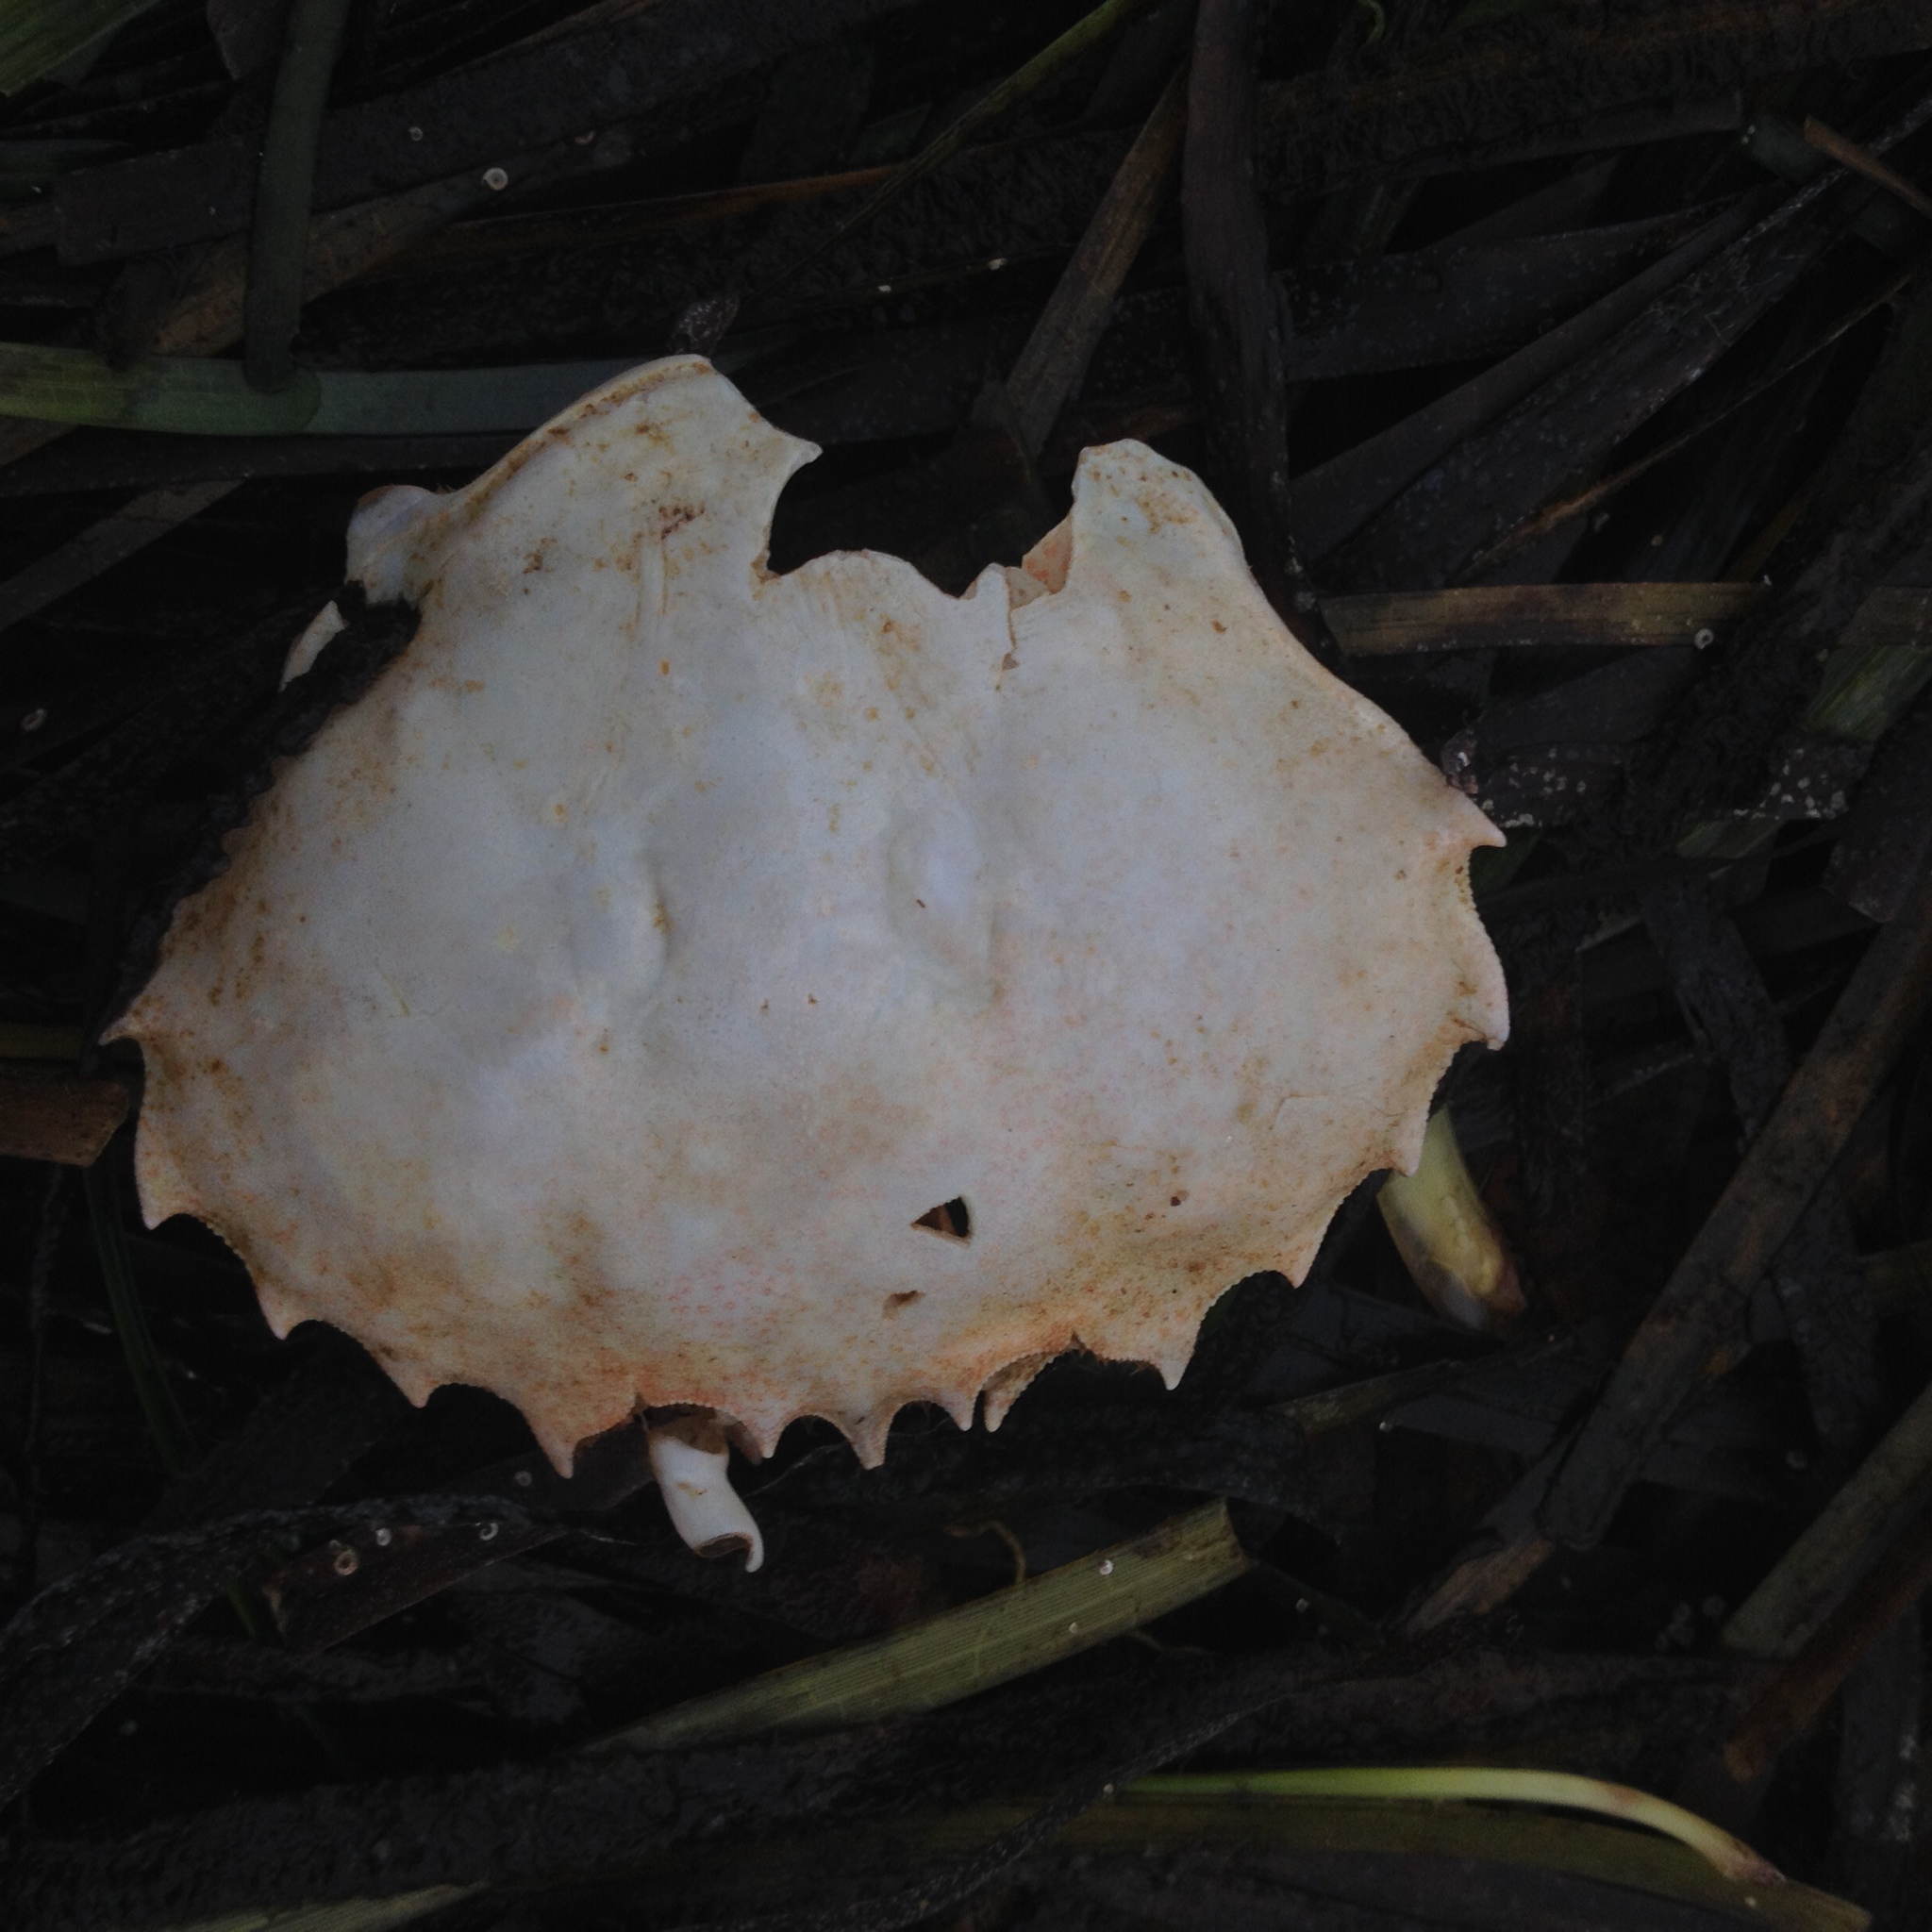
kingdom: Animalia
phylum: Arthropoda
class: Malacostraca
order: Decapoda
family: Ovalipidae
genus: Ovalipes
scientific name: Ovalipes ocellatus
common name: Lady crab
